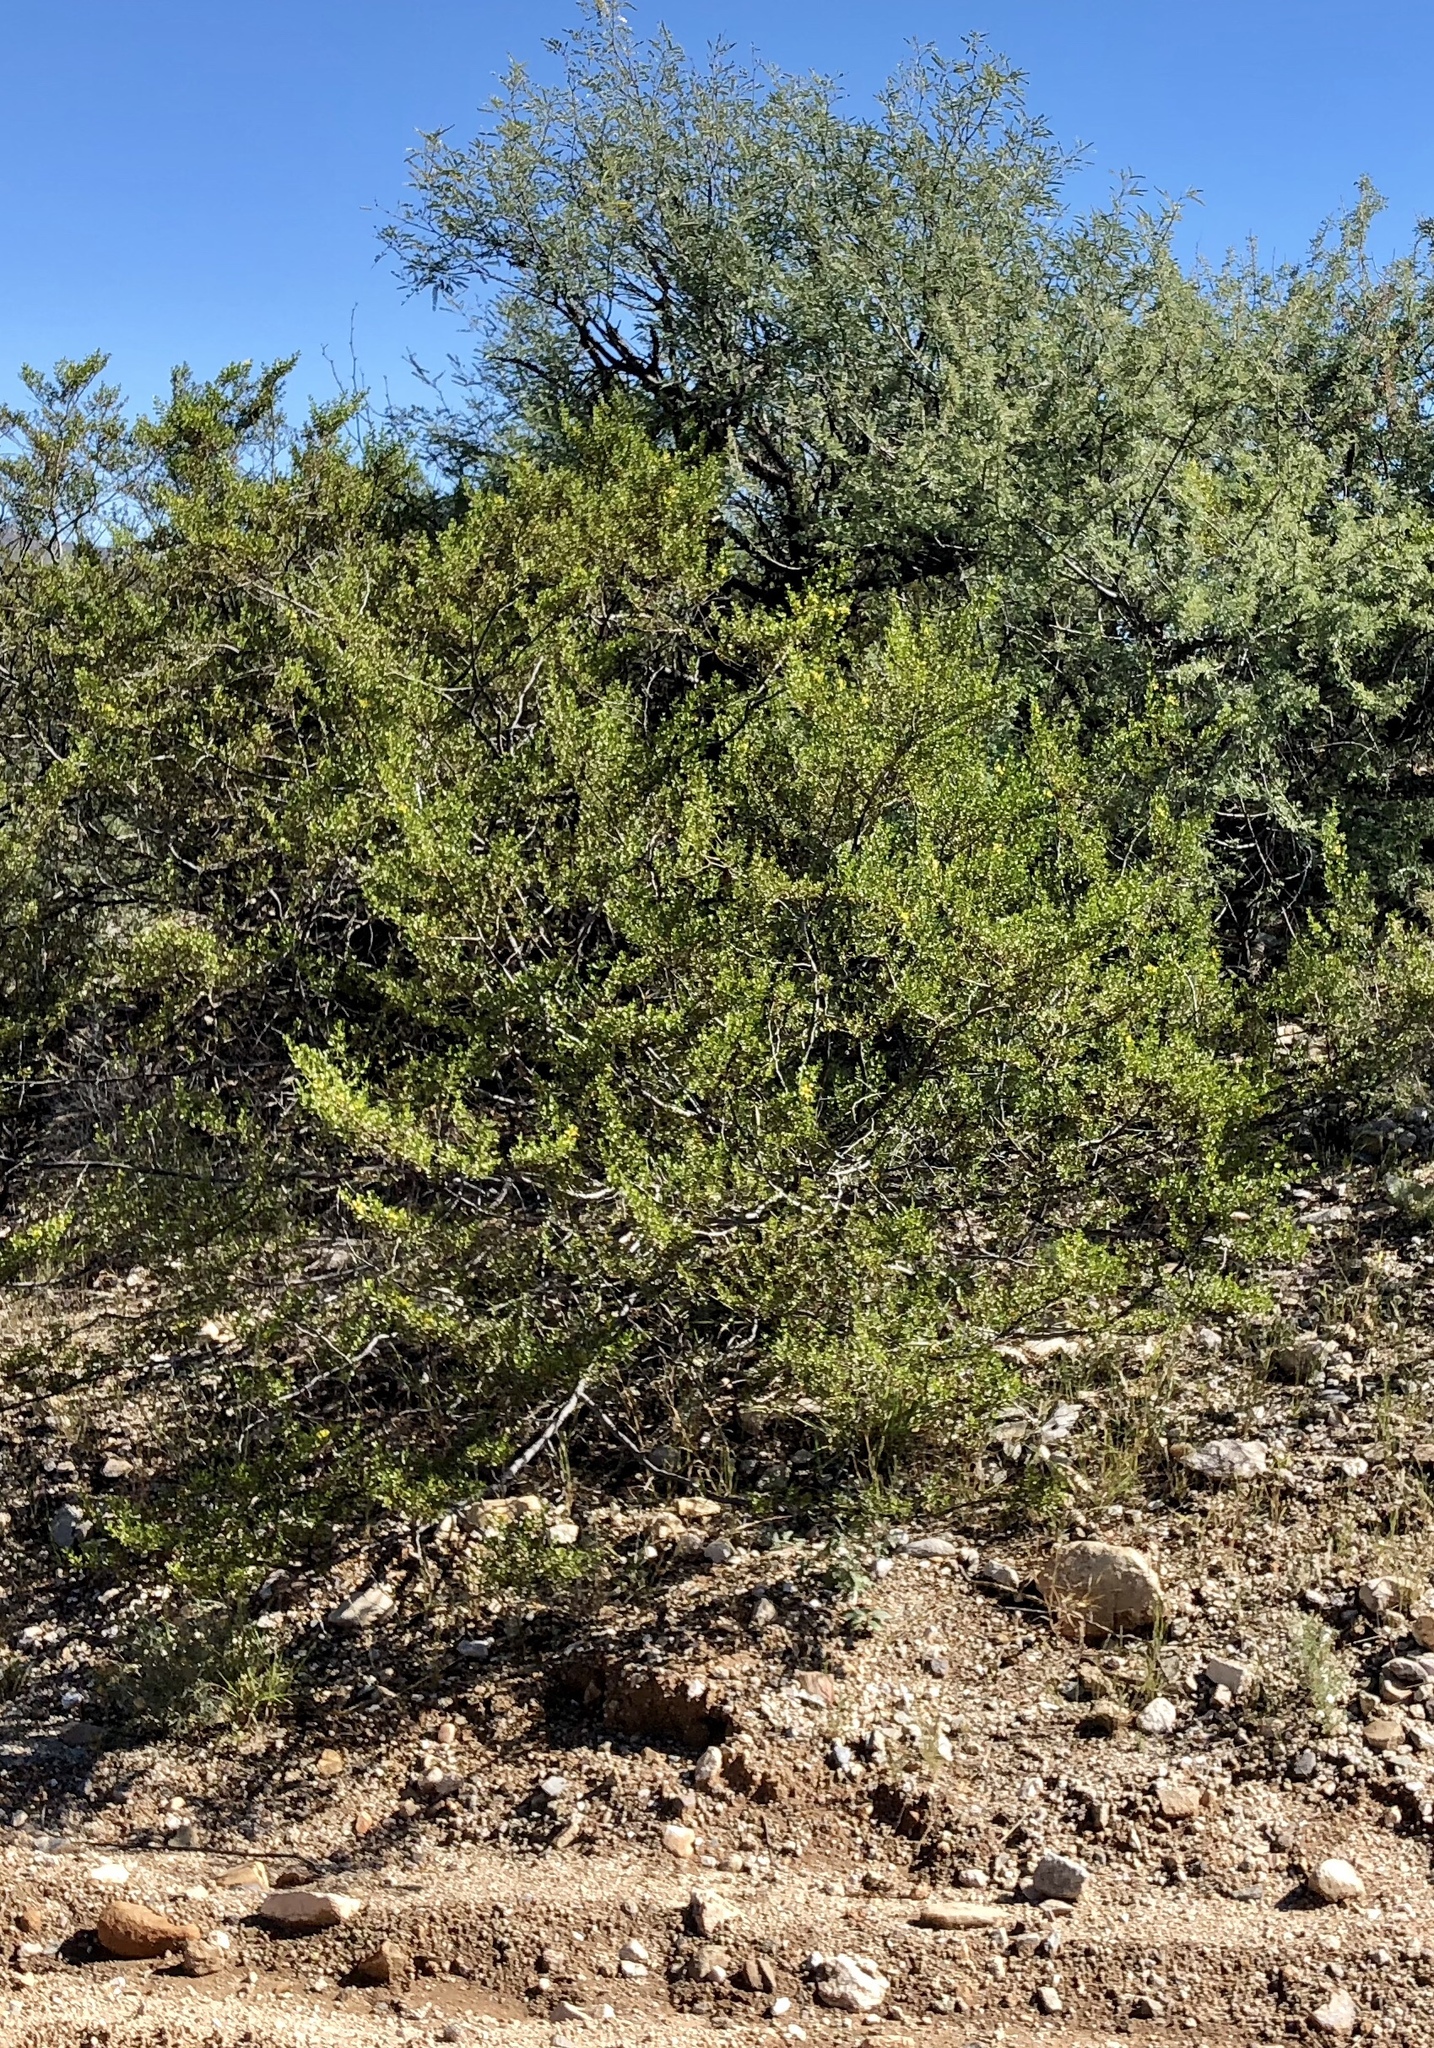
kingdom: Plantae
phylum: Tracheophyta
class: Magnoliopsida
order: Zygophyllales
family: Zygophyllaceae
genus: Larrea
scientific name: Larrea tridentata
